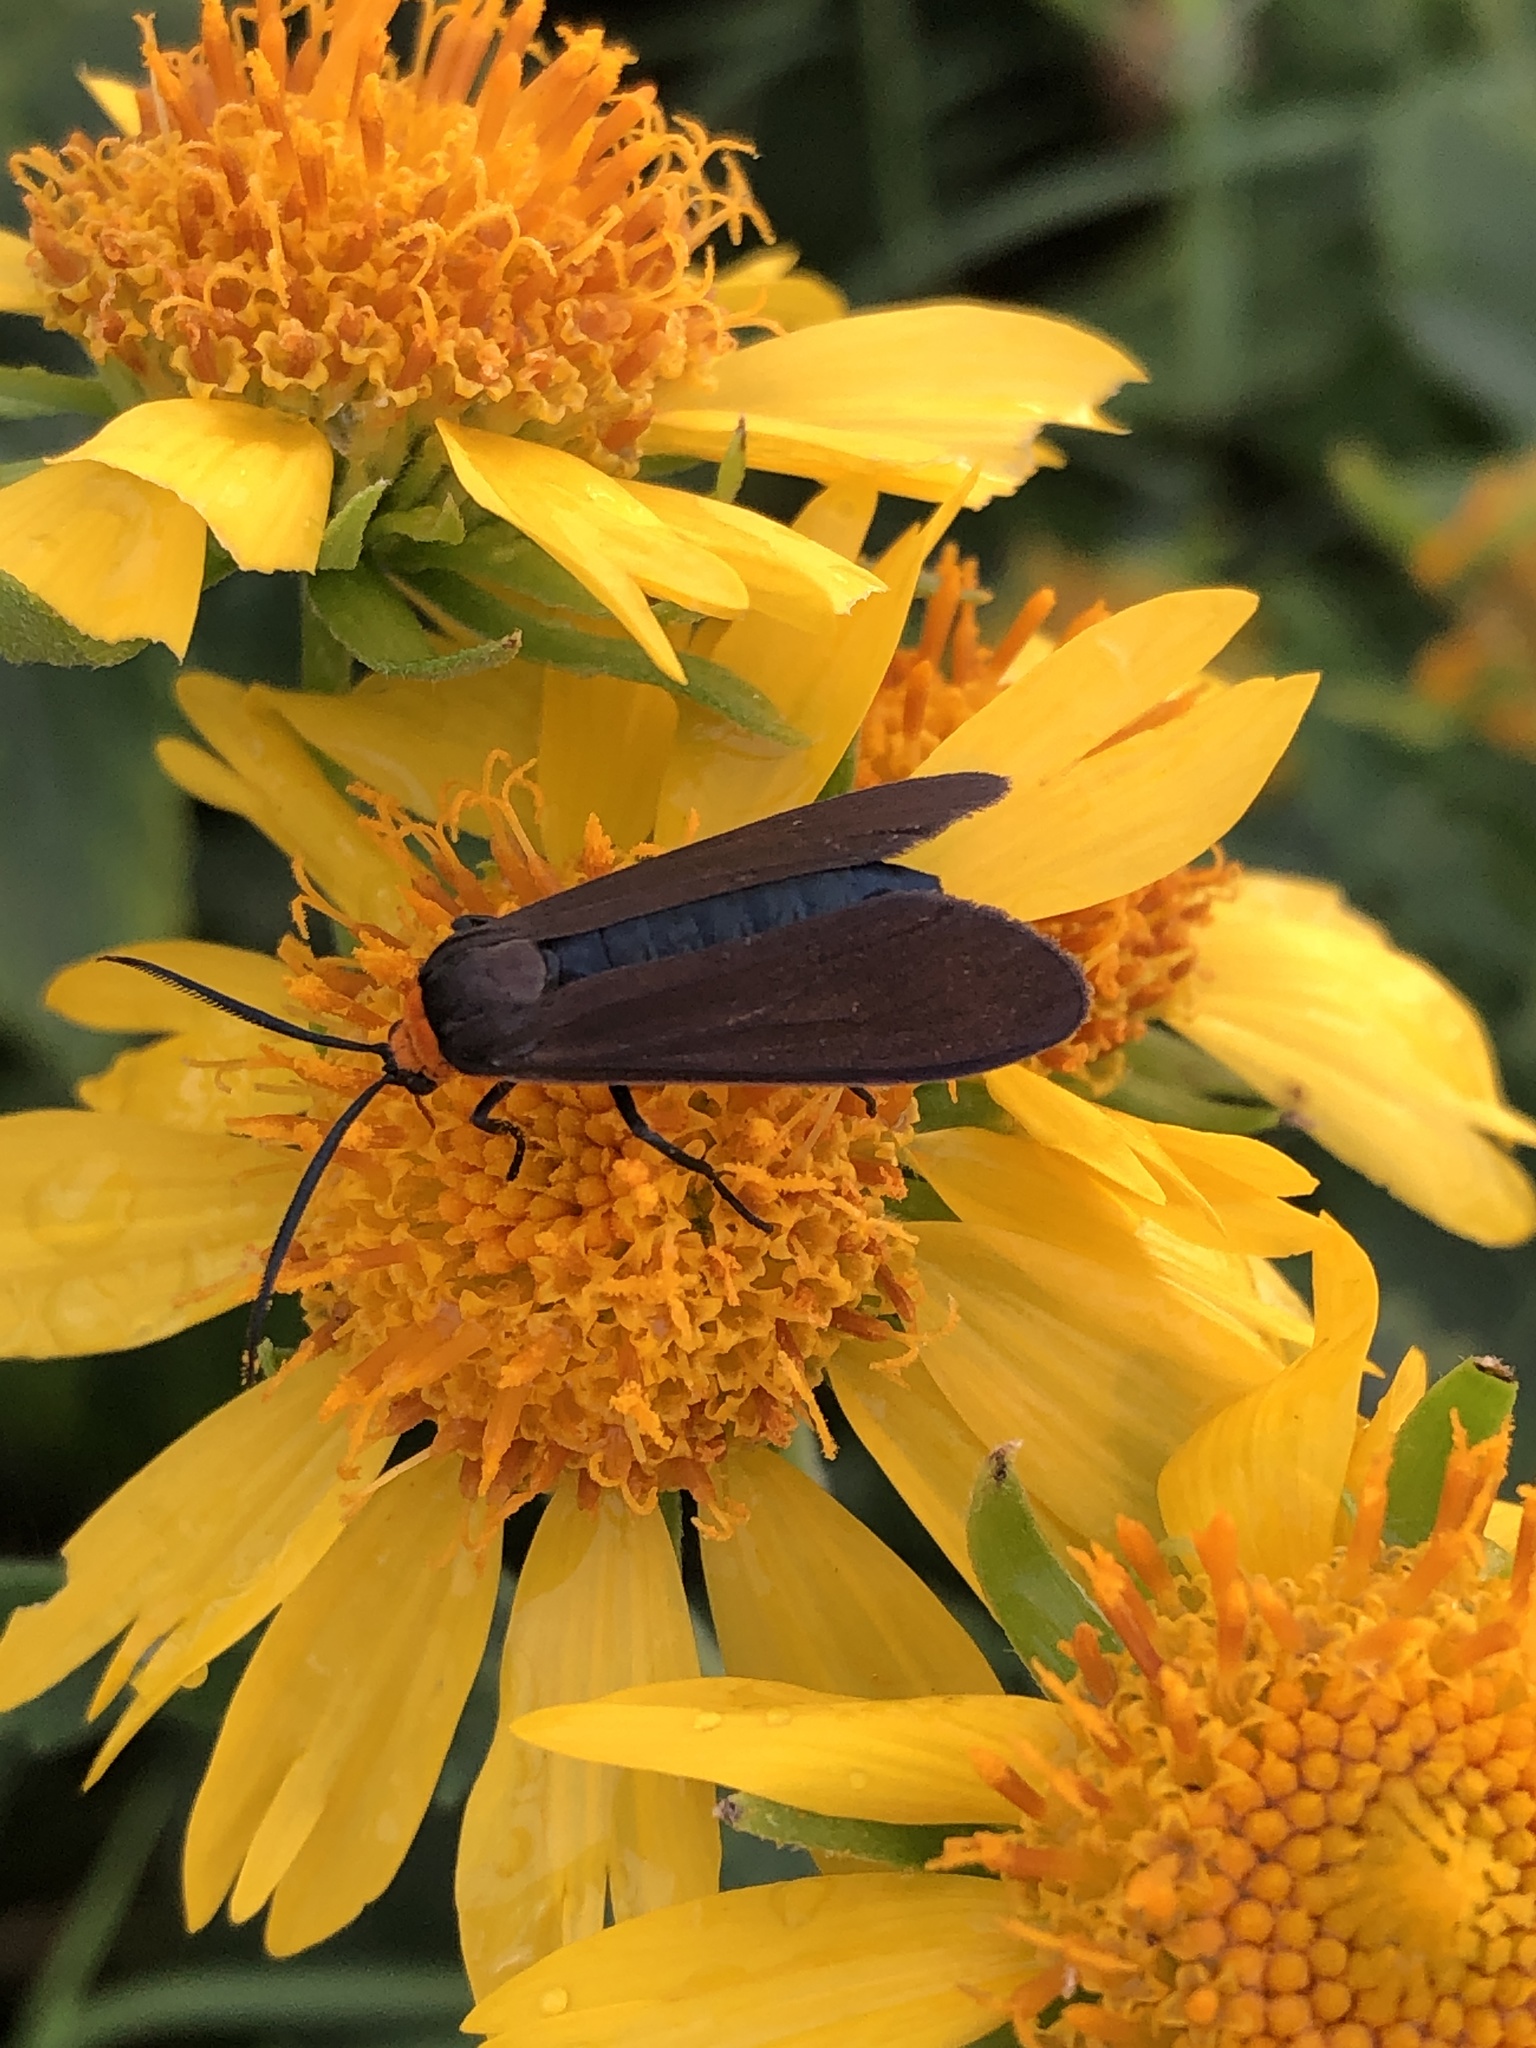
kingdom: Animalia
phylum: Arthropoda
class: Insecta
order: Lepidoptera
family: Erebidae
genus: Cisseps
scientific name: Cisseps fulvicollis
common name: Yellow-collared scape moth
